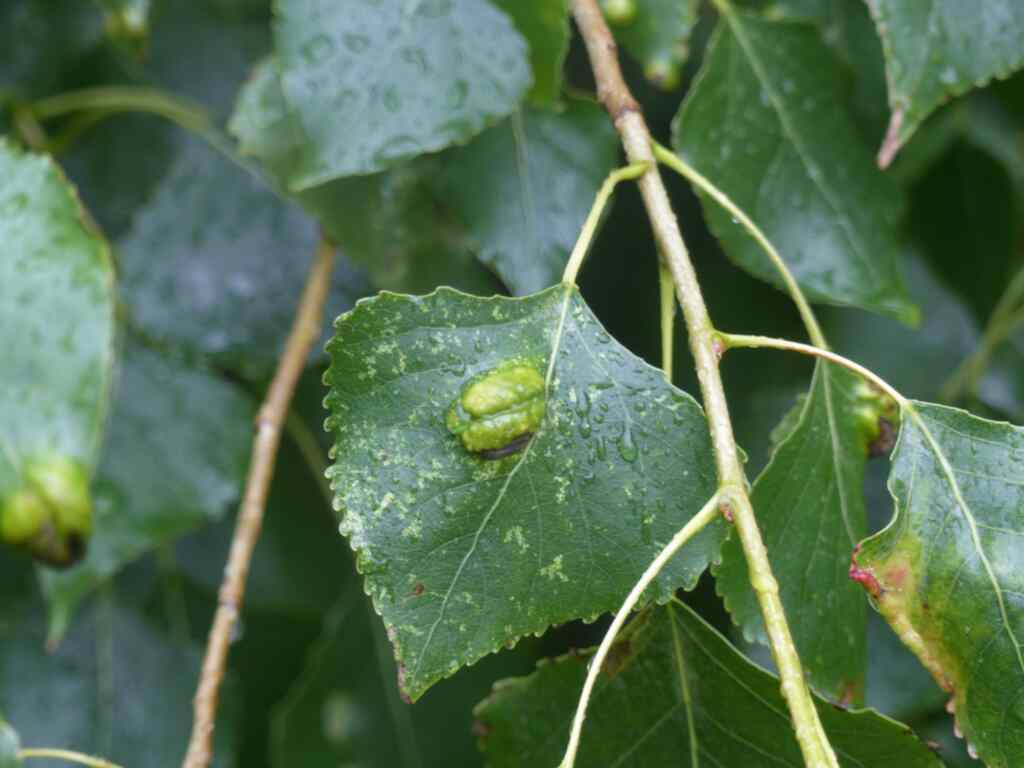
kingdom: Fungi
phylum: Ascomycota
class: Taphrinomycetes
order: Taphrinales
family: Taphrinaceae
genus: Taphrina
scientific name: Taphrina populina
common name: Poplar leaf curl
